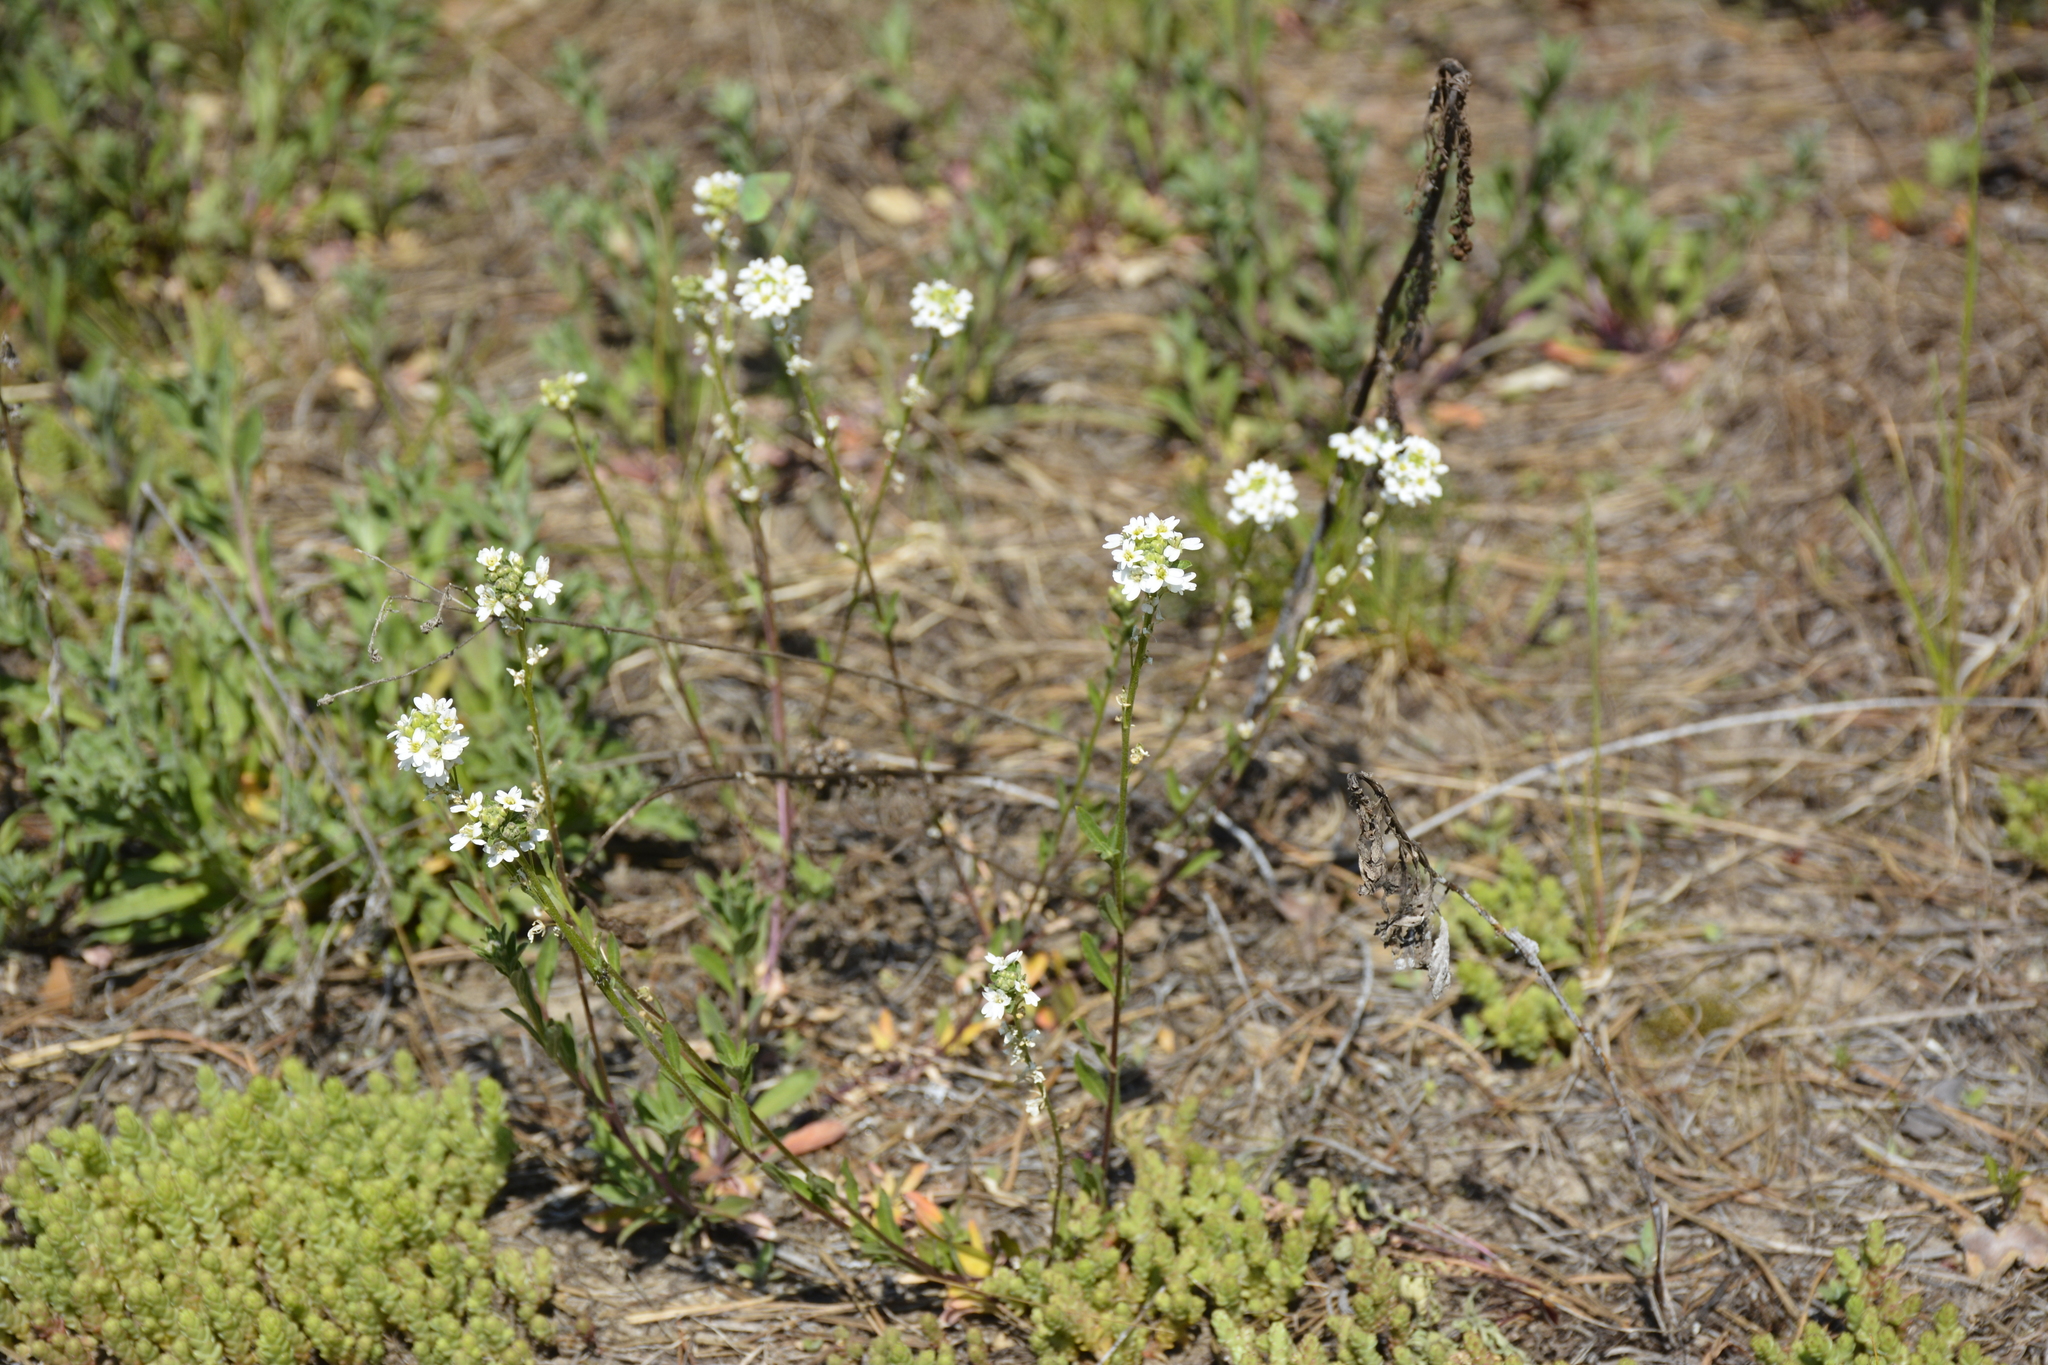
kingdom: Plantae
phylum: Tracheophyta
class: Magnoliopsida
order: Brassicales
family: Brassicaceae
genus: Berteroa
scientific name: Berteroa incana
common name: Hoary alison
